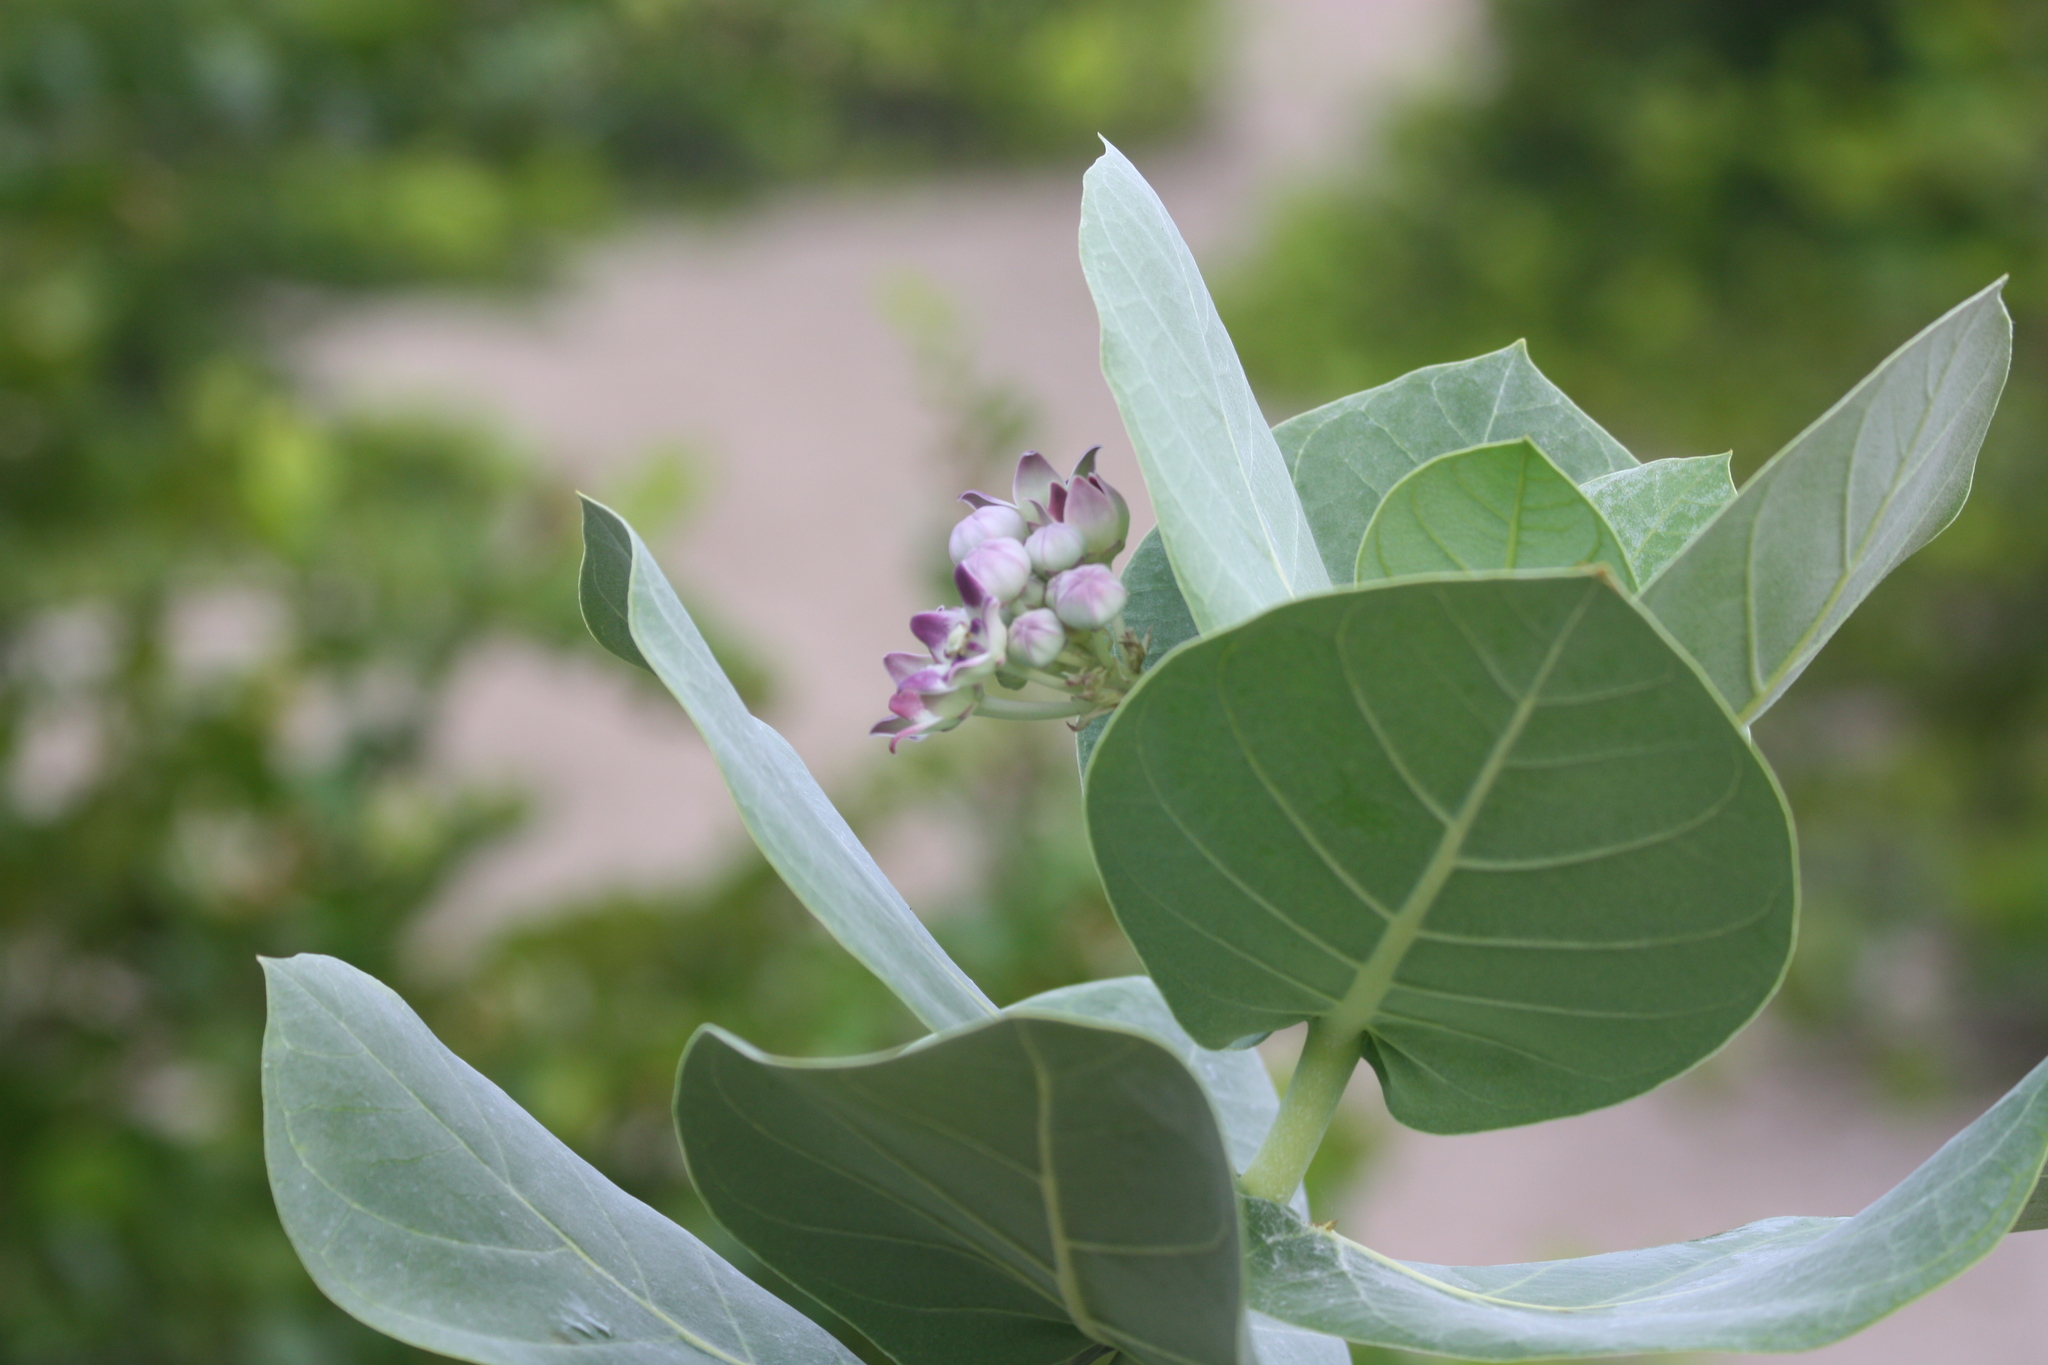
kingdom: Plantae
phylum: Tracheophyta
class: Magnoliopsida
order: Gentianales
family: Apocynaceae
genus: Calotropis
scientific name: Calotropis procera
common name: Roostertree
